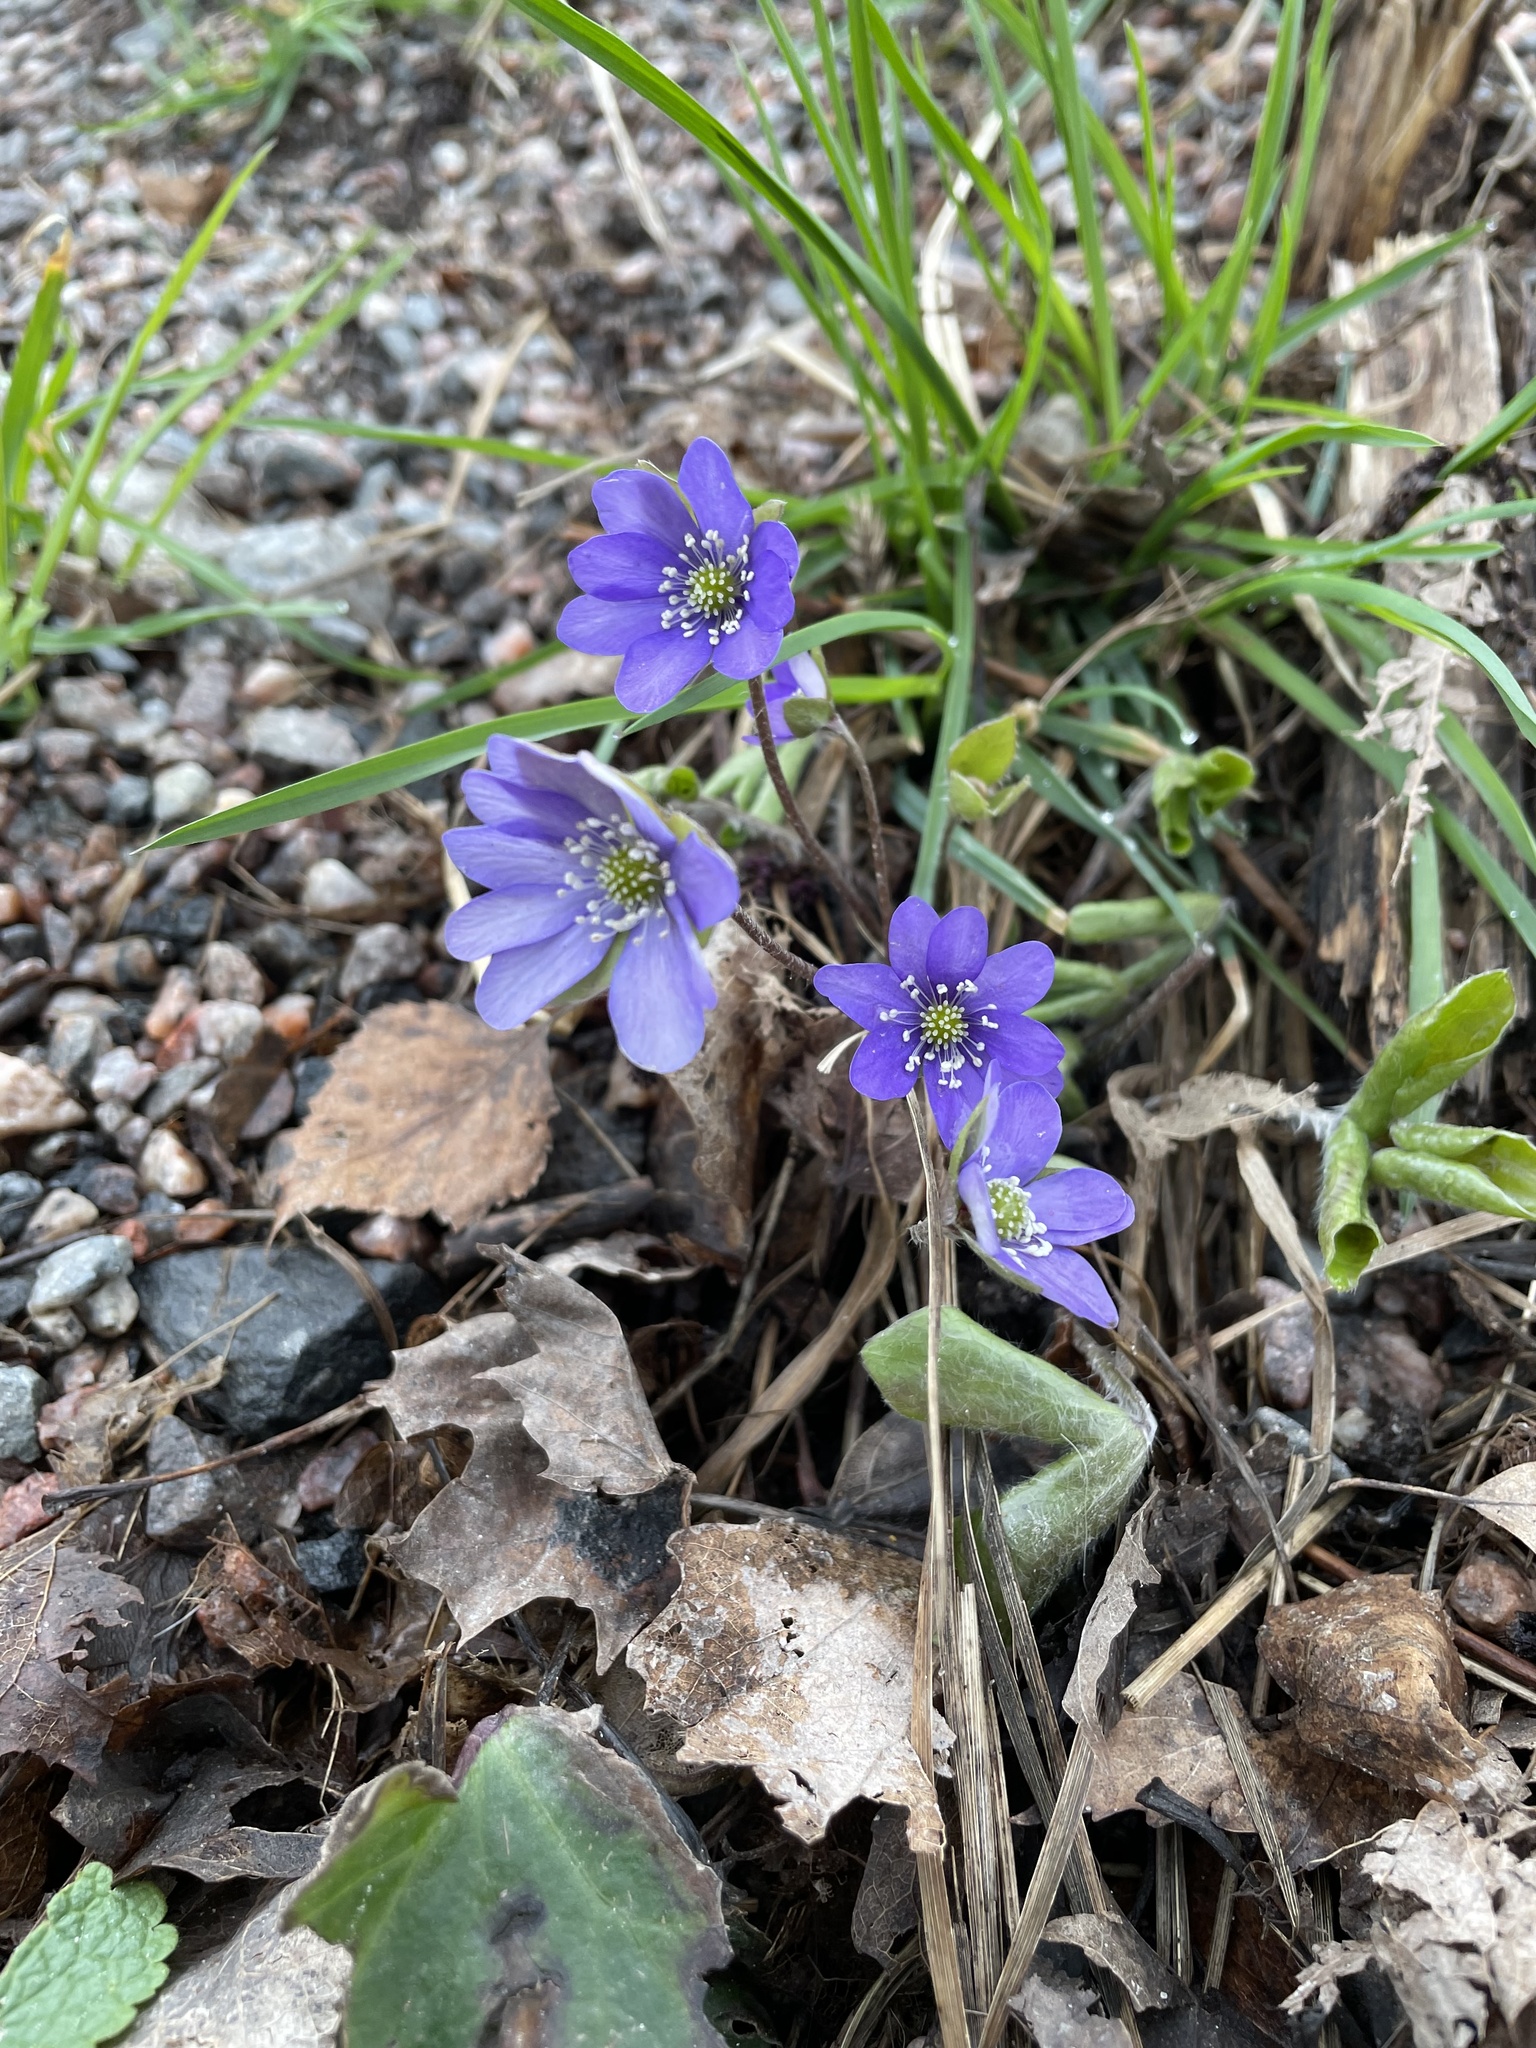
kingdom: Plantae
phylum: Tracheophyta
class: Magnoliopsida
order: Ranunculales
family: Ranunculaceae
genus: Hepatica
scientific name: Hepatica nobilis
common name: Liverleaf
